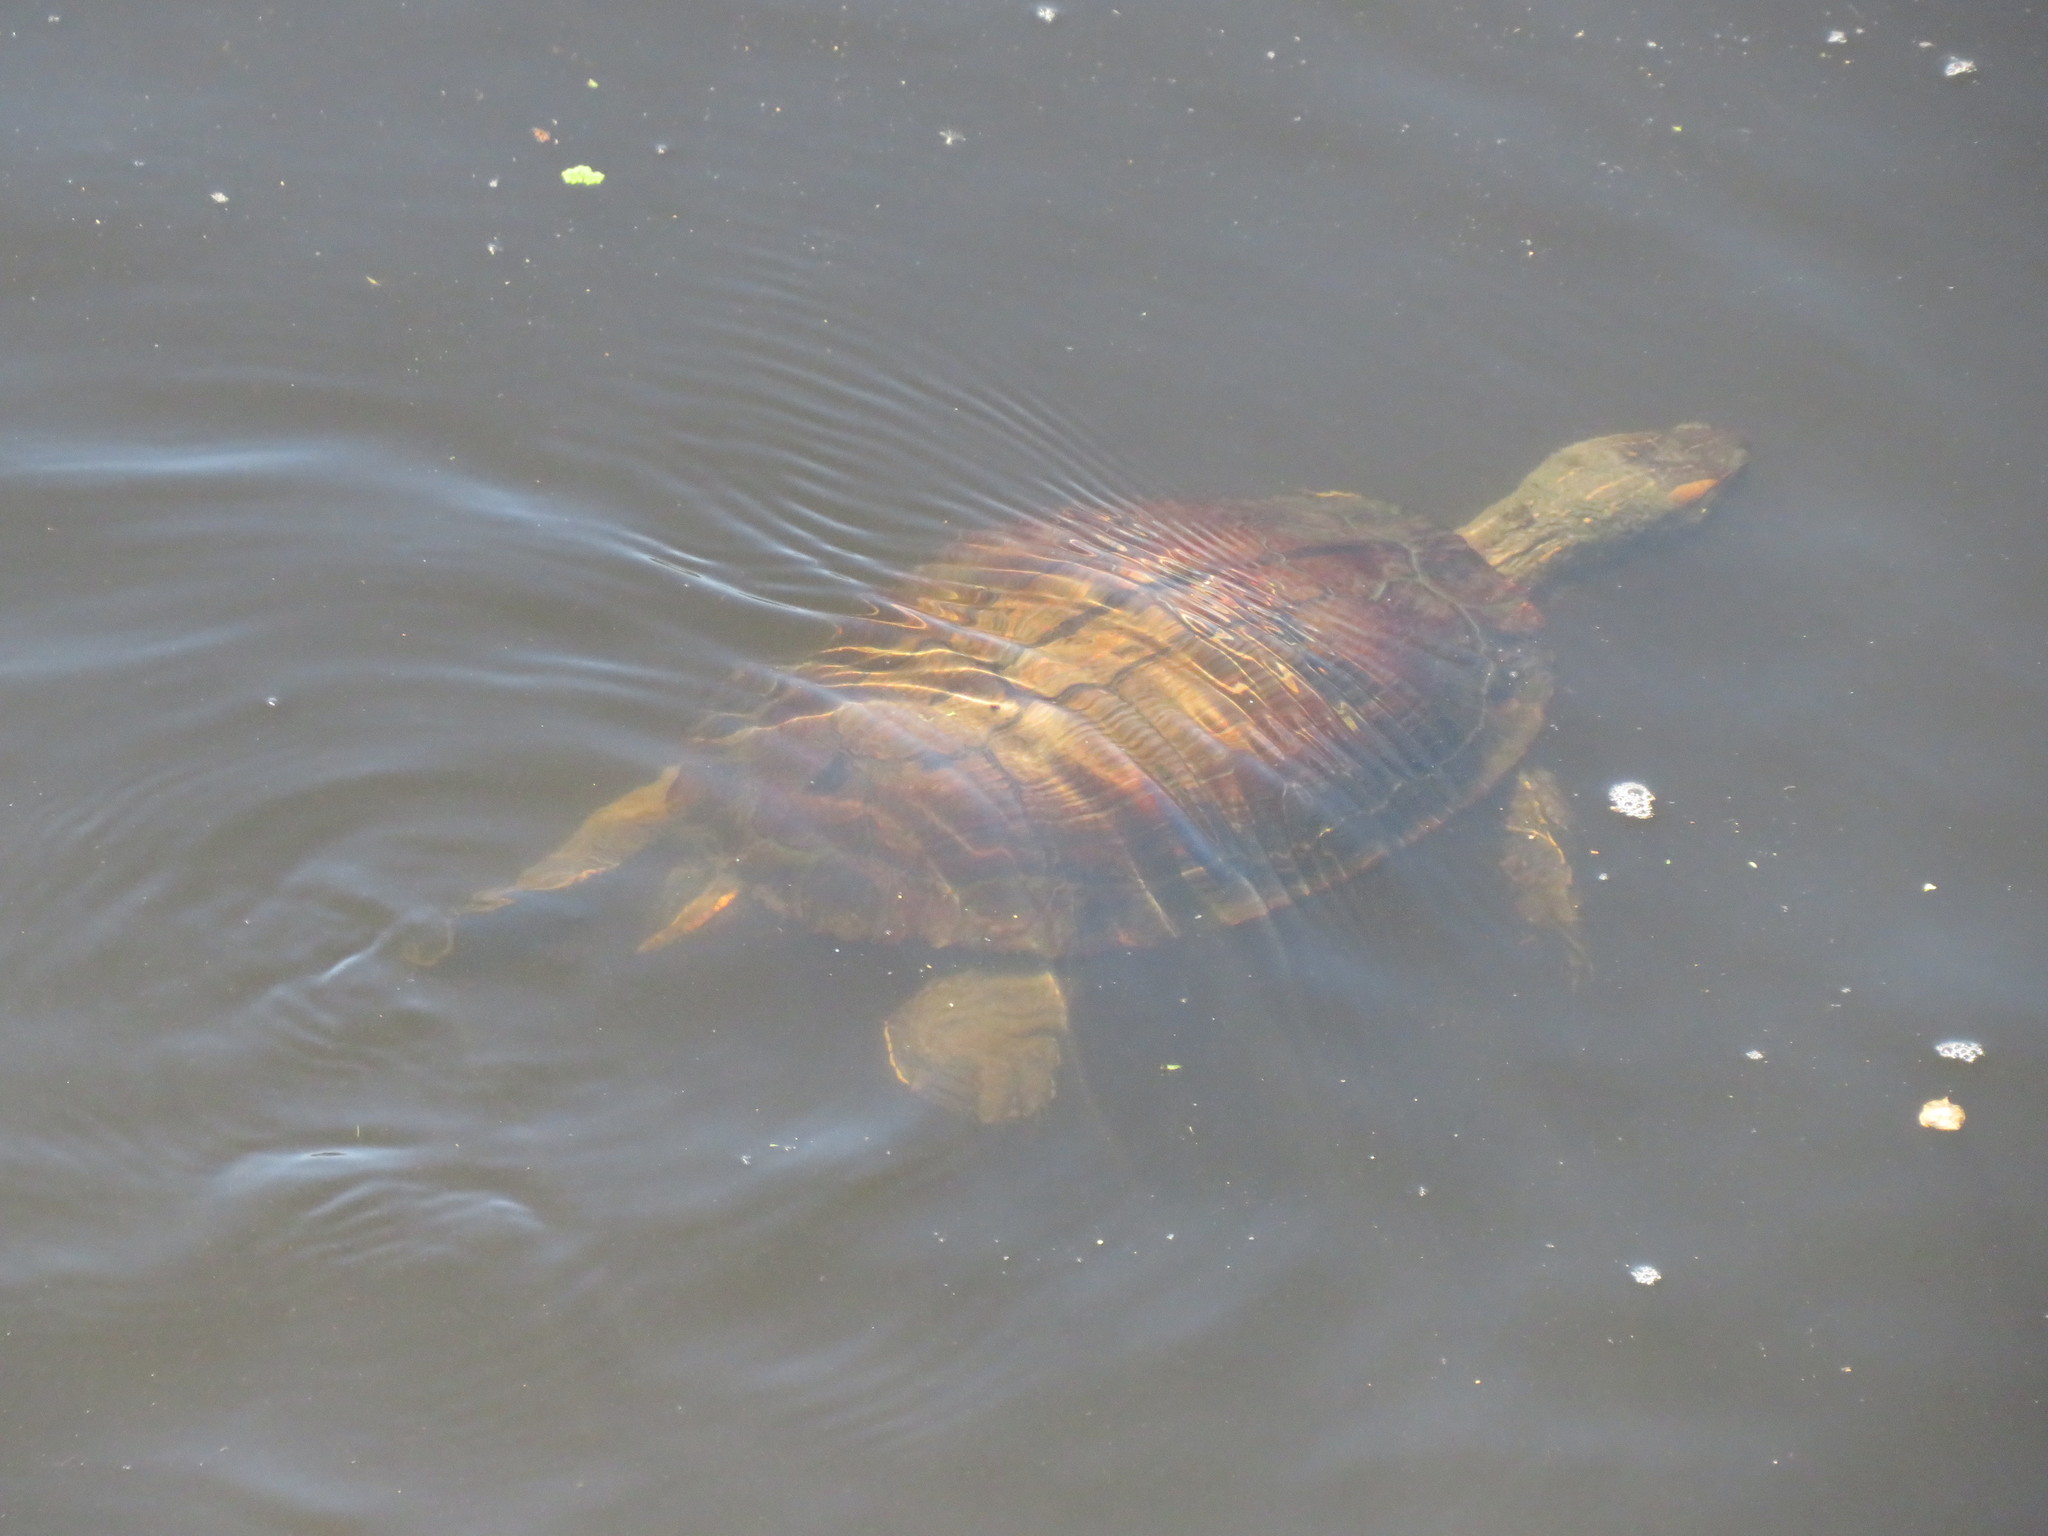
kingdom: Animalia
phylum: Chordata
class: Testudines
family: Emydidae
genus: Trachemys
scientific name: Trachemys dorbigni
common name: Black-bellied slider
